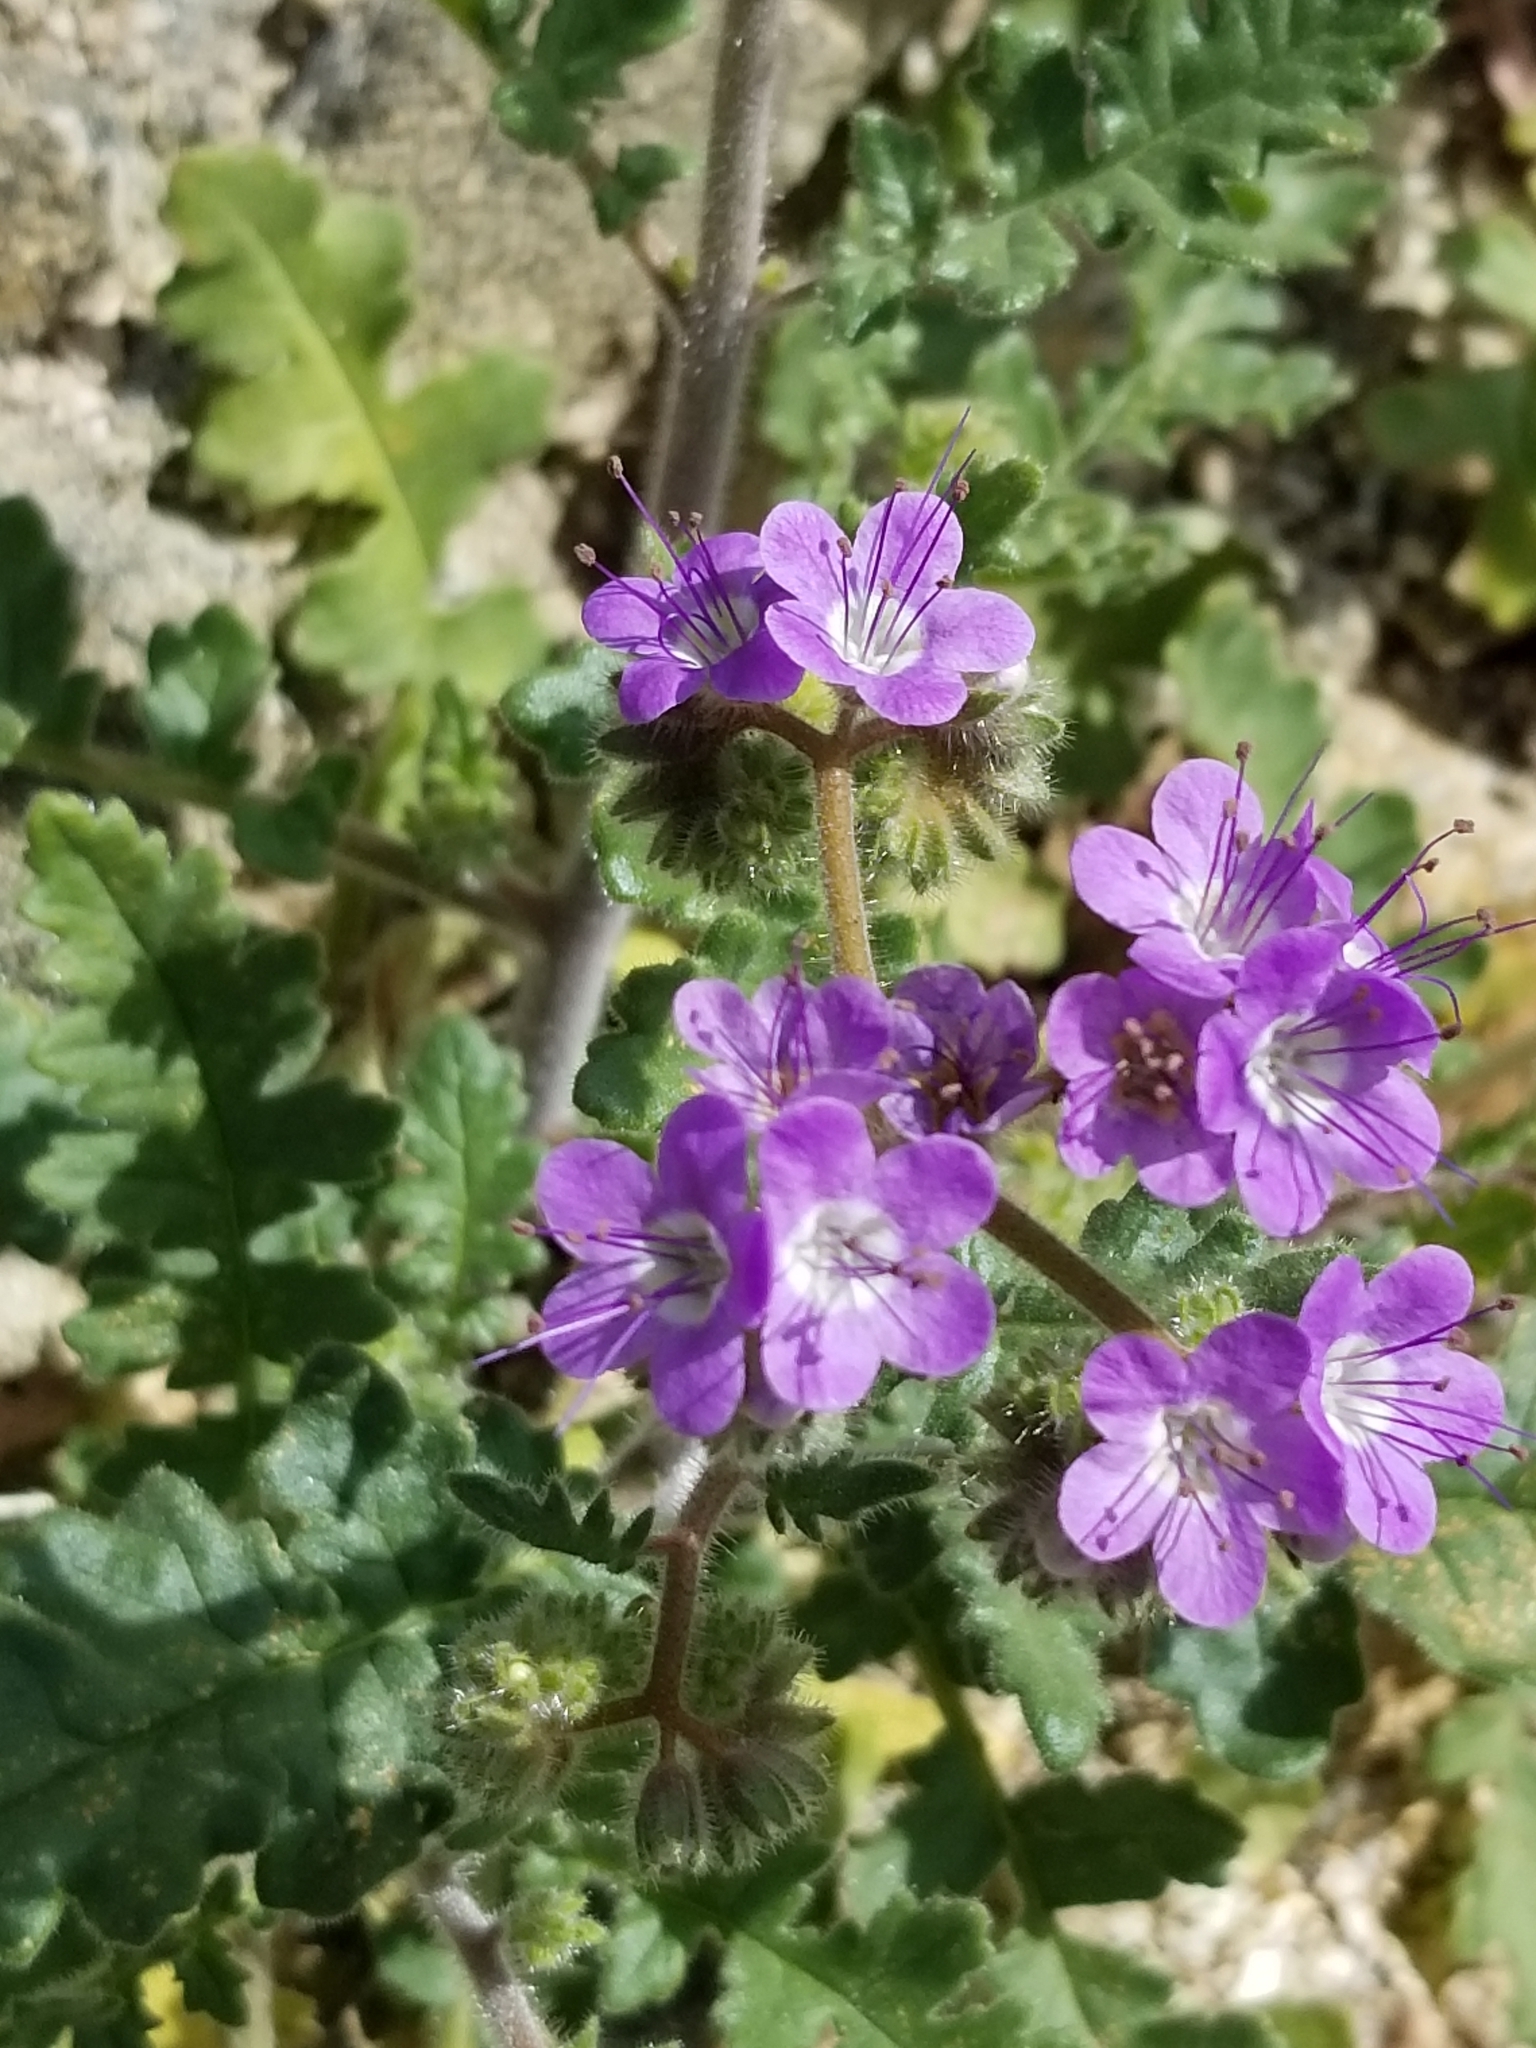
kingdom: Plantae
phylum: Tracheophyta
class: Magnoliopsida
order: Boraginales
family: Hydrophyllaceae
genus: Phacelia
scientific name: Phacelia crenulata
